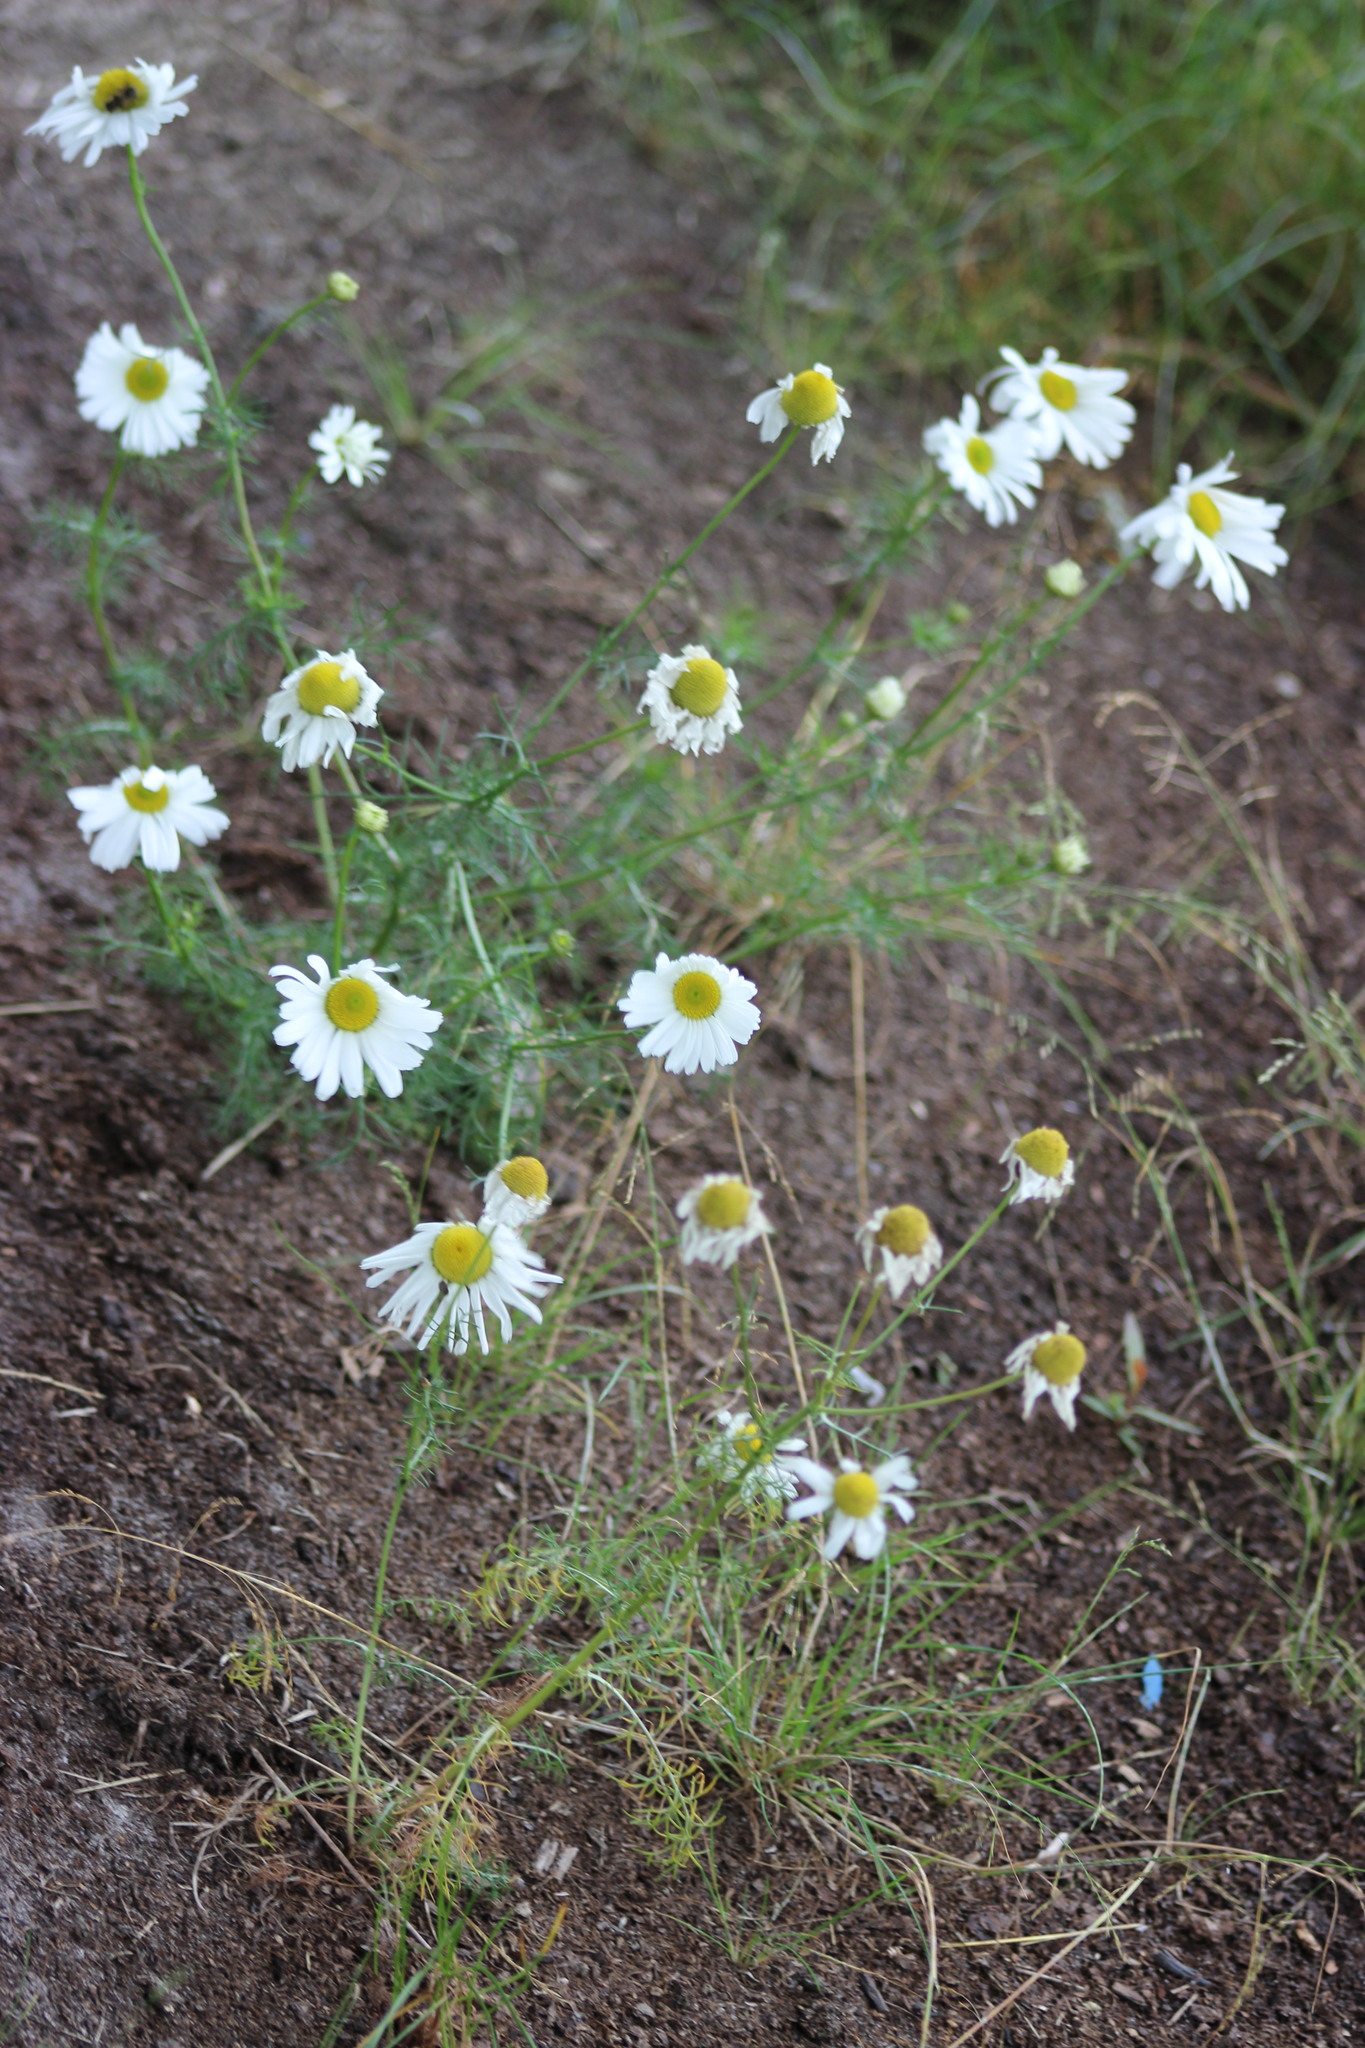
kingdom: Plantae
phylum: Tracheophyta
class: Magnoliopsida
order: Asterales
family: Asteraceae
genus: Tripleurospermum
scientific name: Tripleurospermum inodorum
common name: Scentless mayweed
